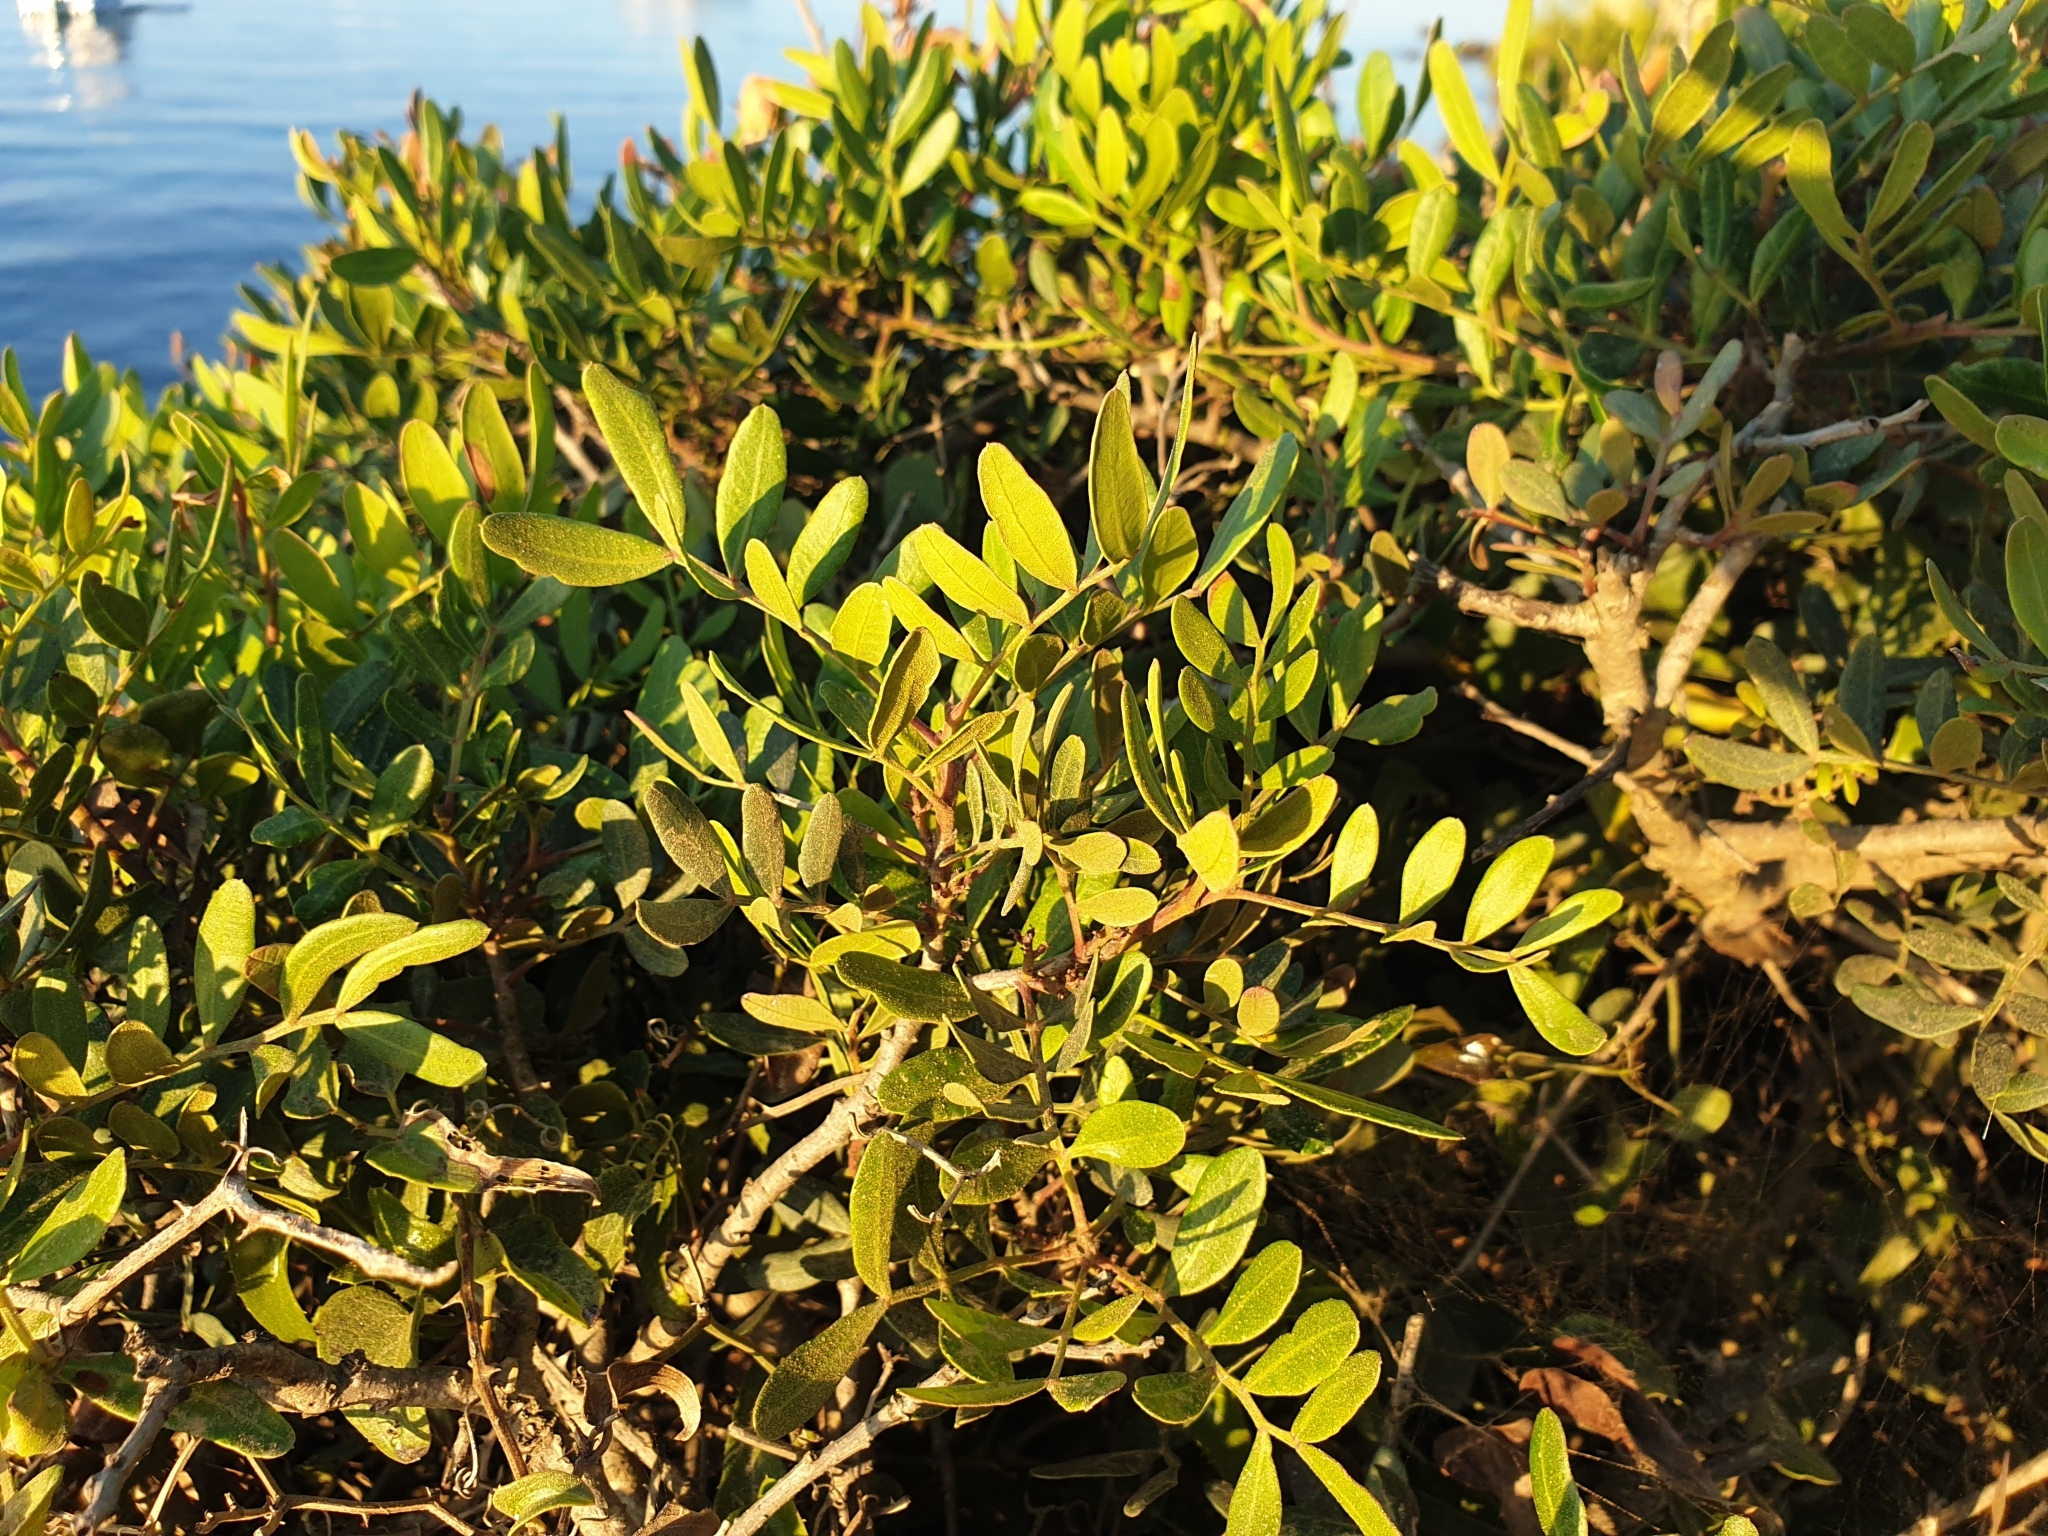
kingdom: Plantae
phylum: Tracheophyta
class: Magnoliopsida
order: Sapindales
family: Anacardiaceae
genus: Pistacia
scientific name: Pistacia lentiscus
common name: Lentisk
